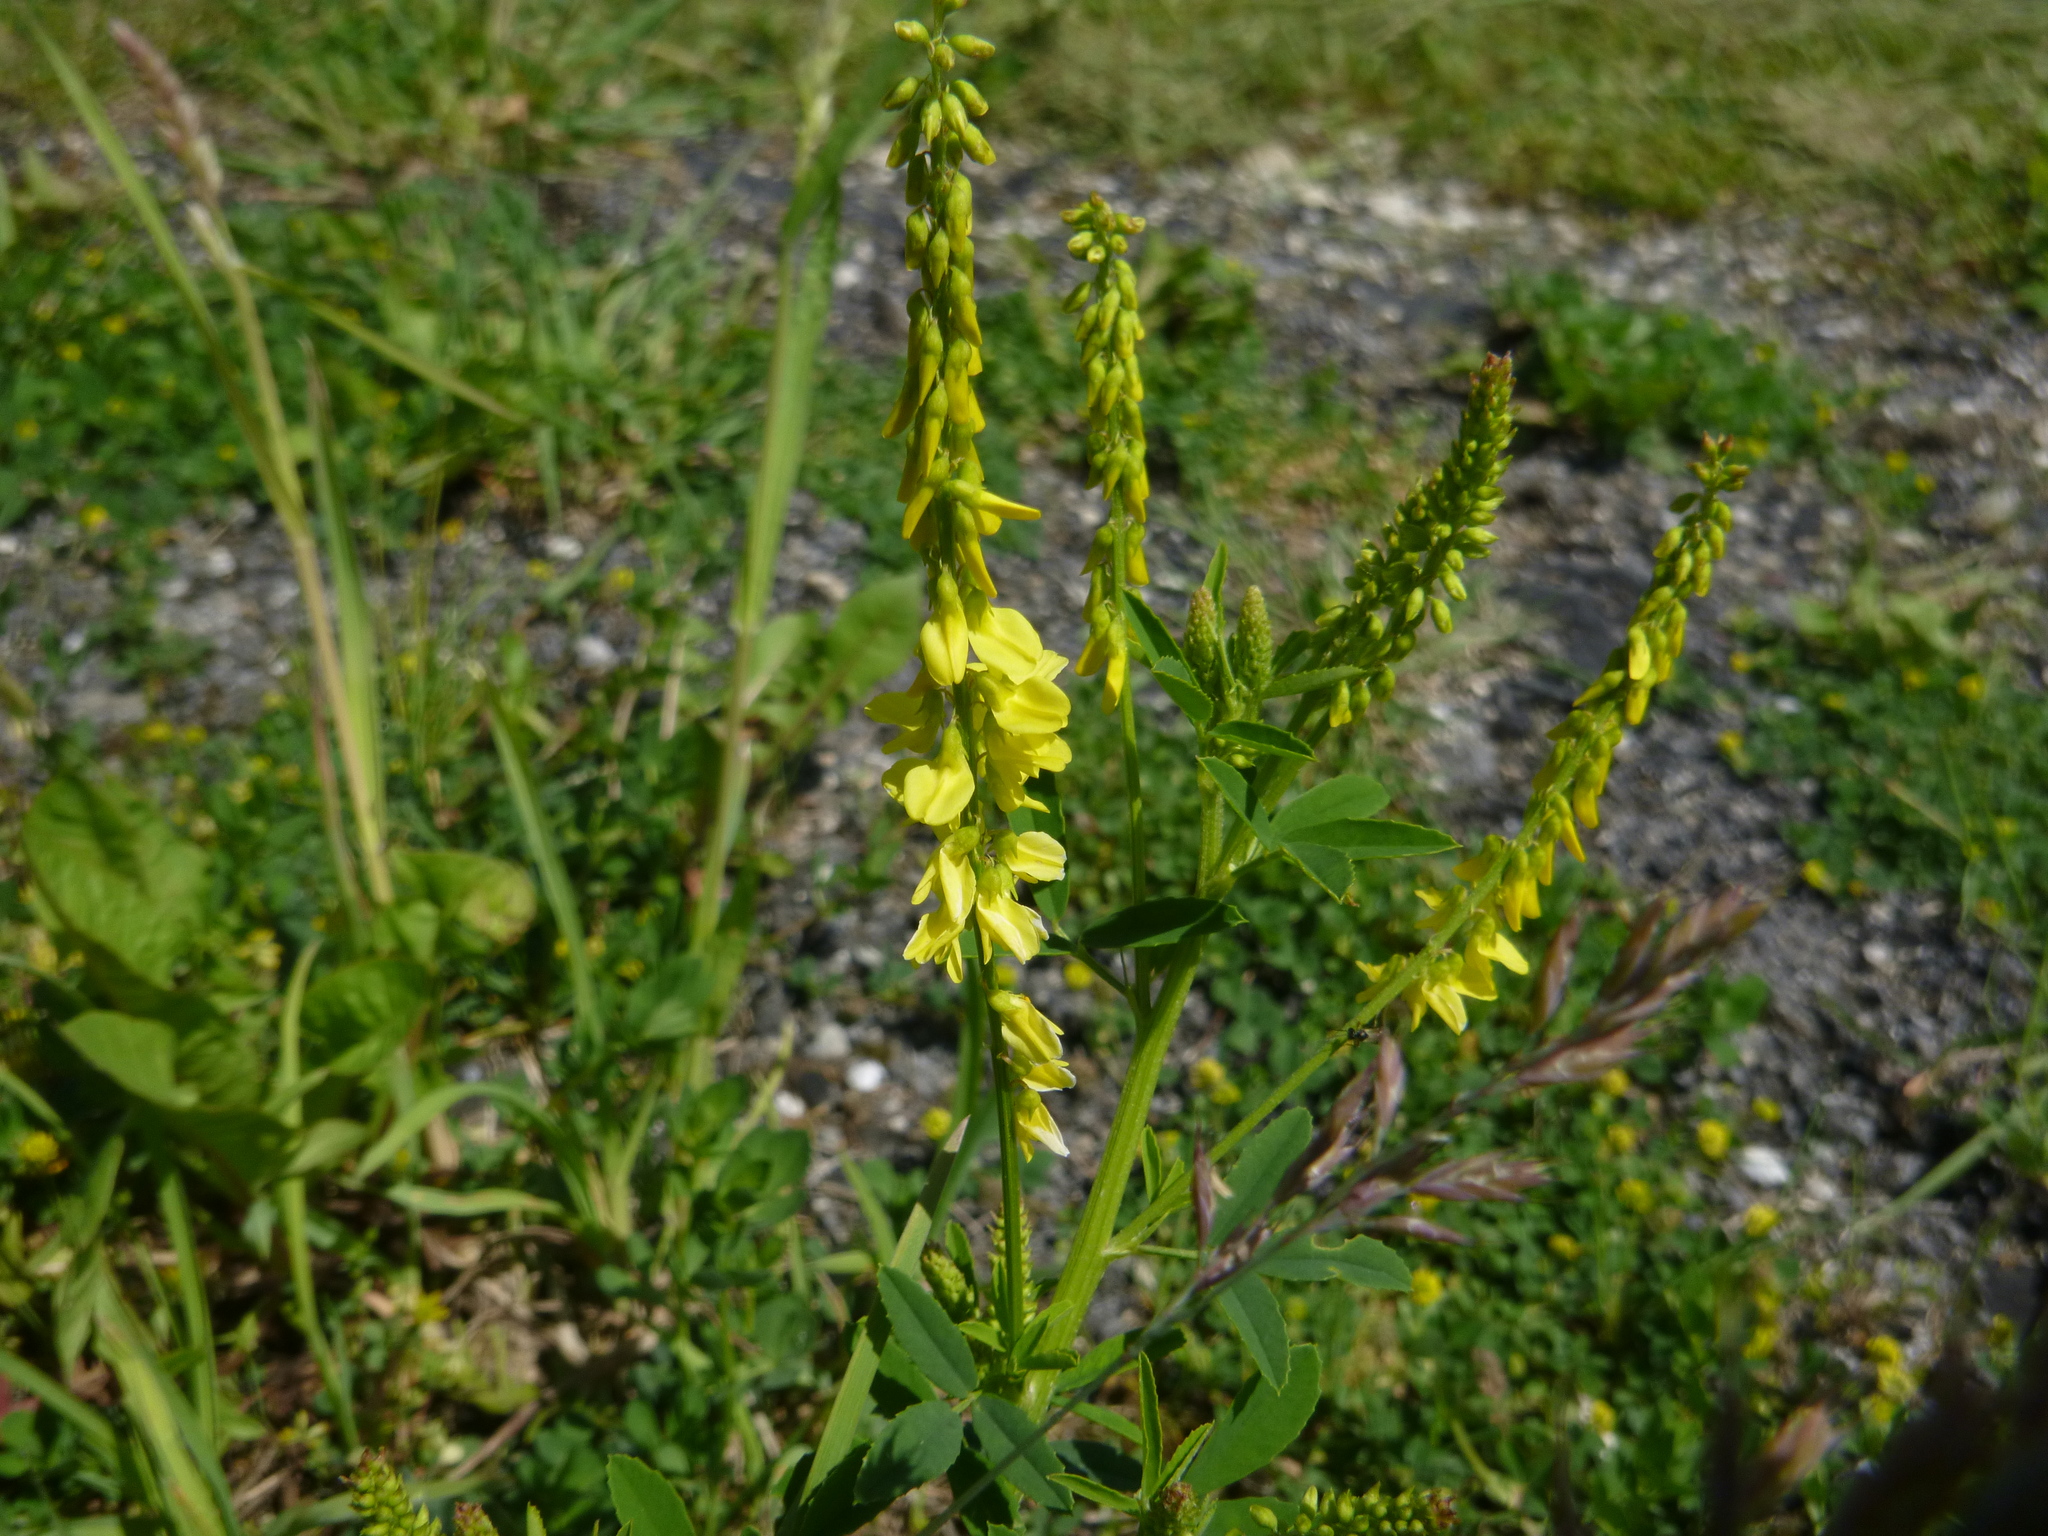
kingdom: Plantae
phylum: Tracheophyta
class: Magnoliopsida
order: Fabales
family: Fabaceae
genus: Melilotus
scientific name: Melilotus officinalis
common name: Sweetclover
